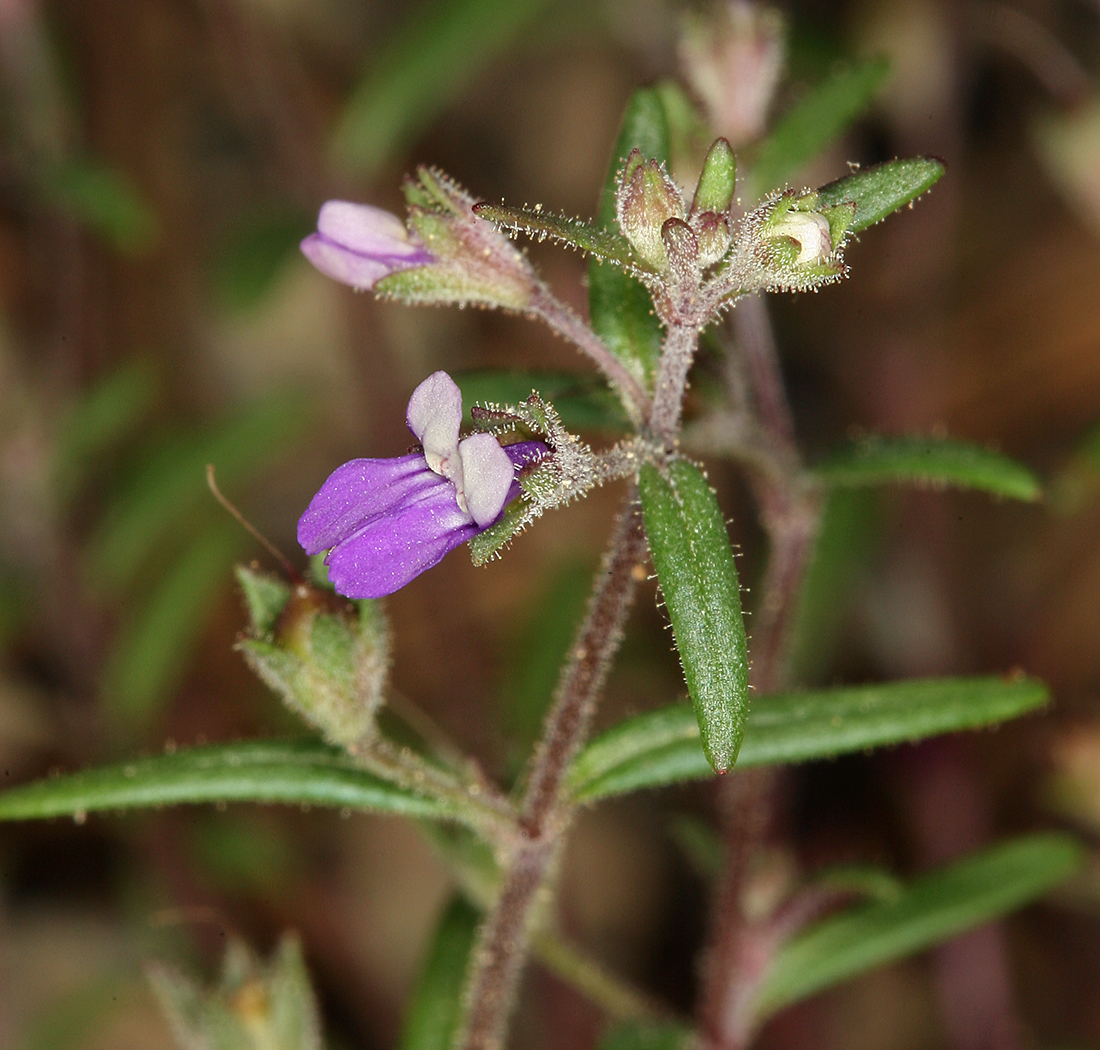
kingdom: Plantae
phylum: Tracheophyta
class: Magnoliopsida
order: Lamiales
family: Plantaginaceae
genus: Collinsia
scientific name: Collinsia rattanii
